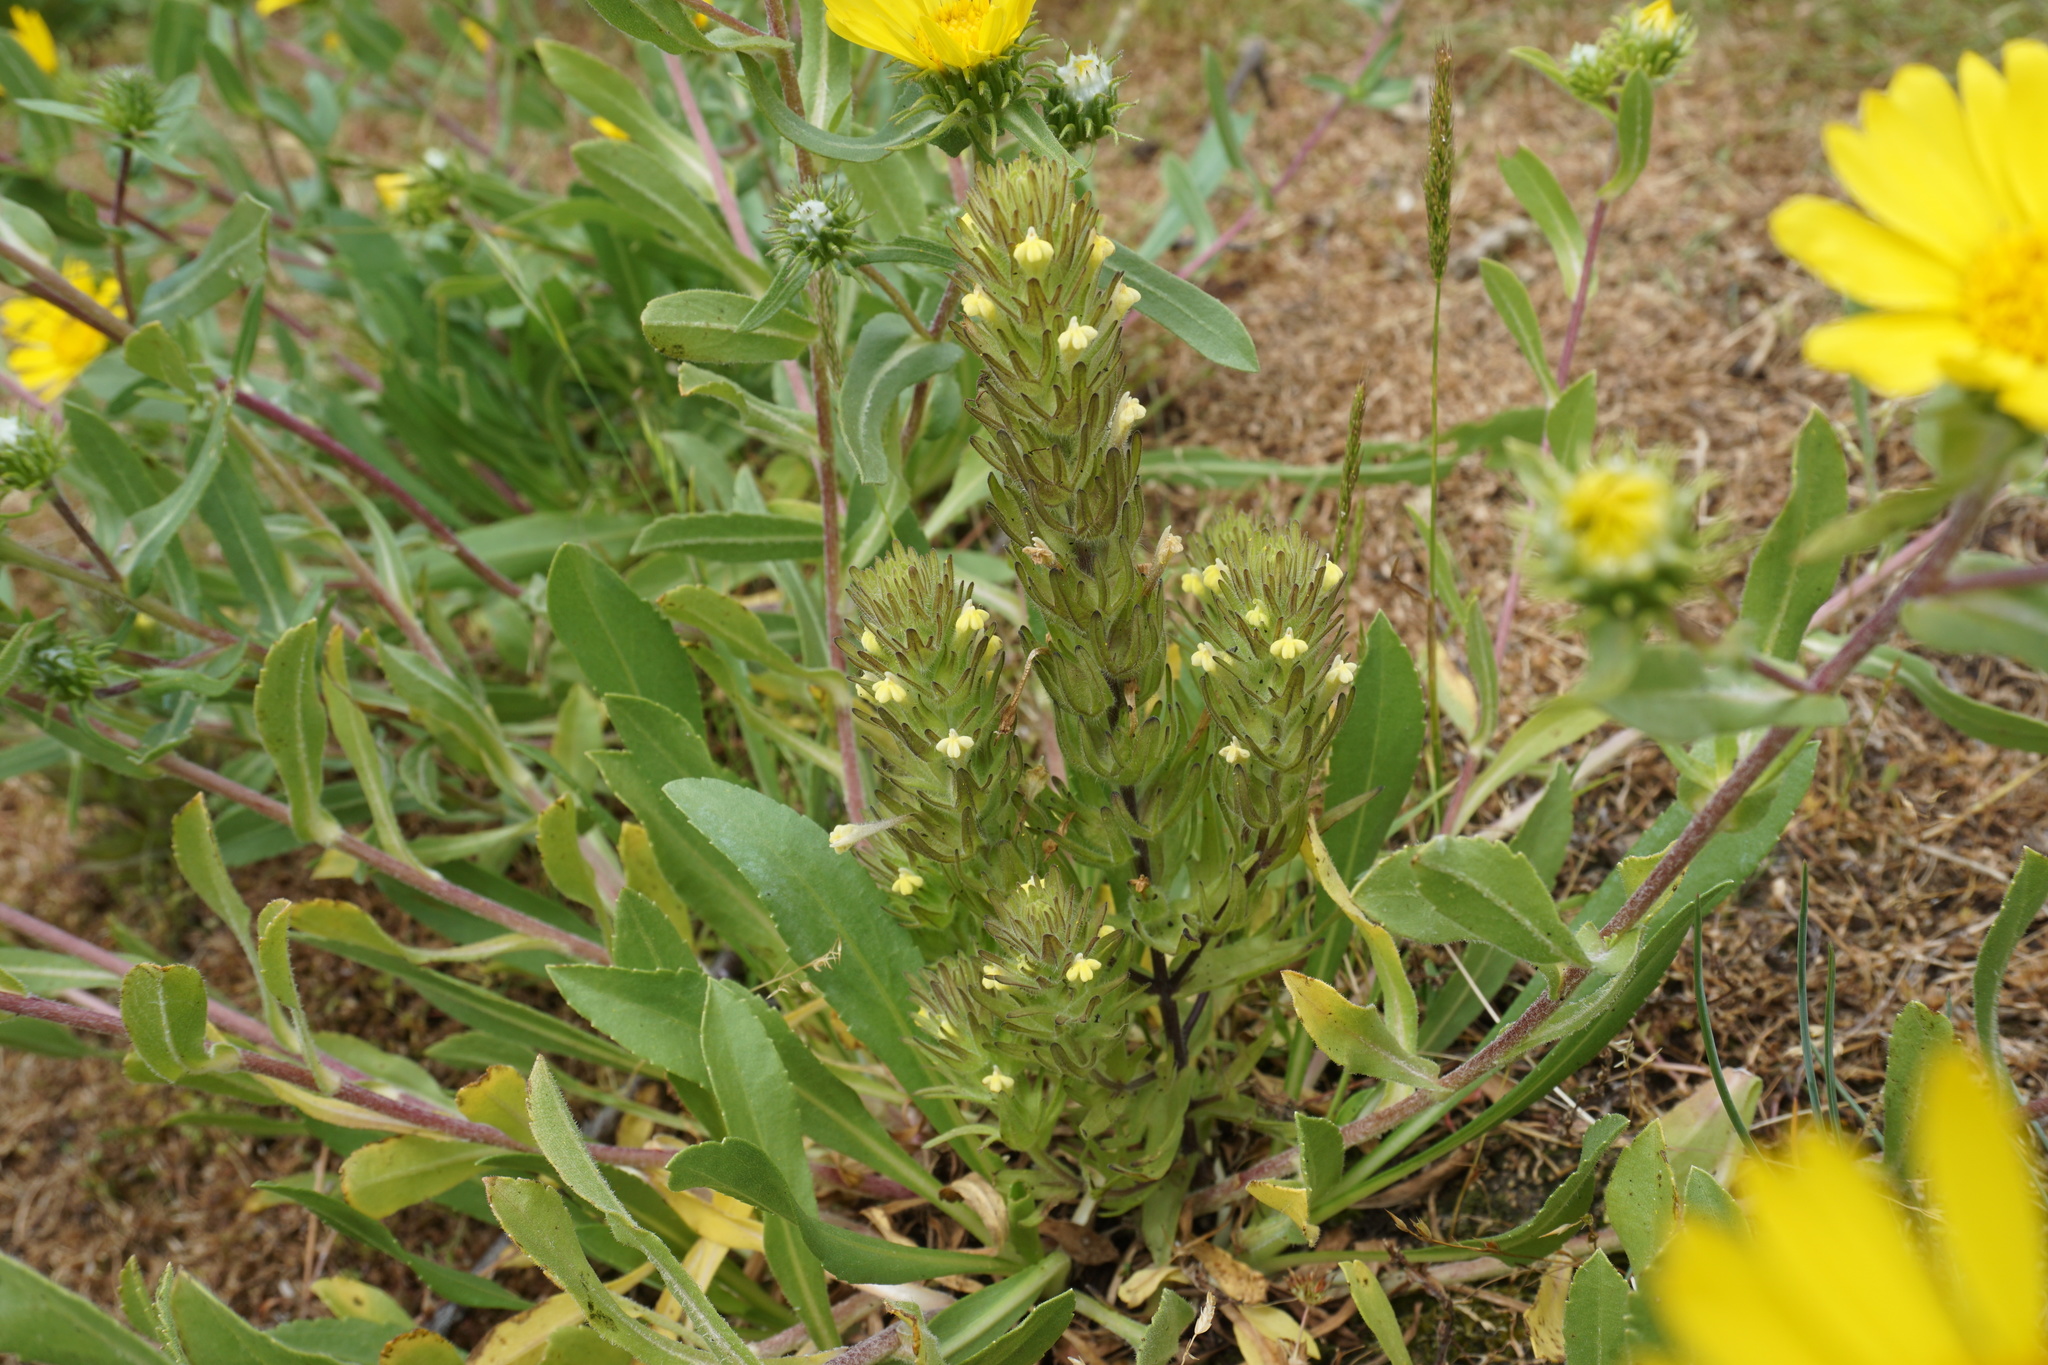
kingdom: Plantae
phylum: Tracheophyta
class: Magnoliopsida
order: Lamiales
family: Orobanchaceae
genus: Castilleja
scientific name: Castilleja victoriae
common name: Victoria paintbrush
